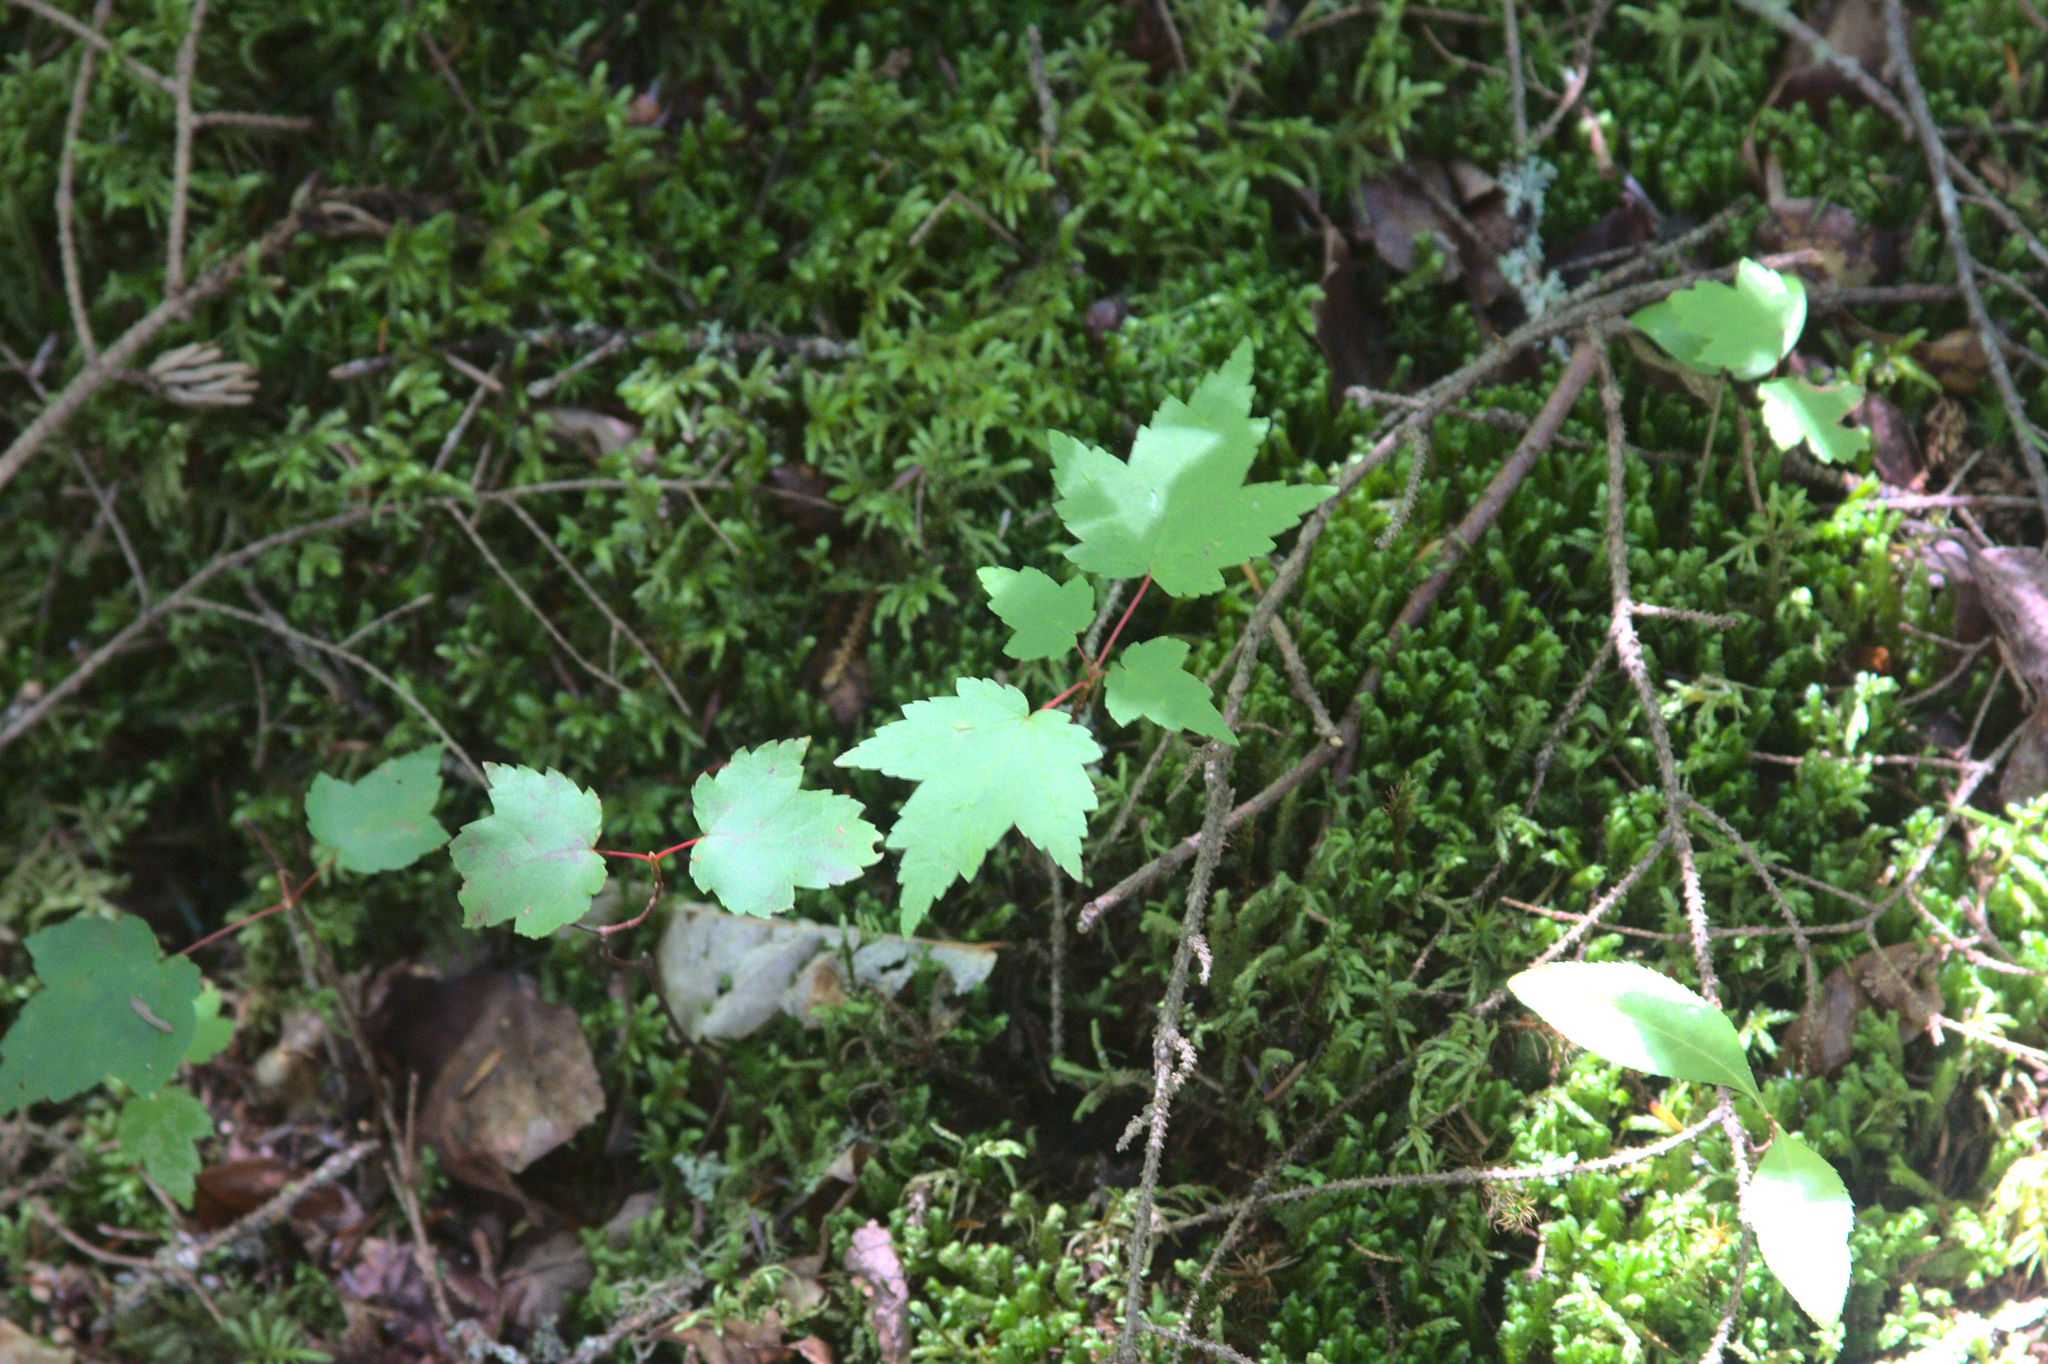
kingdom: Plantae
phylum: Tracheophyta
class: Magnoliopsida
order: Sapindales
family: Sapindaceae
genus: Acer
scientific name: Acer rubrum
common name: Red maple
